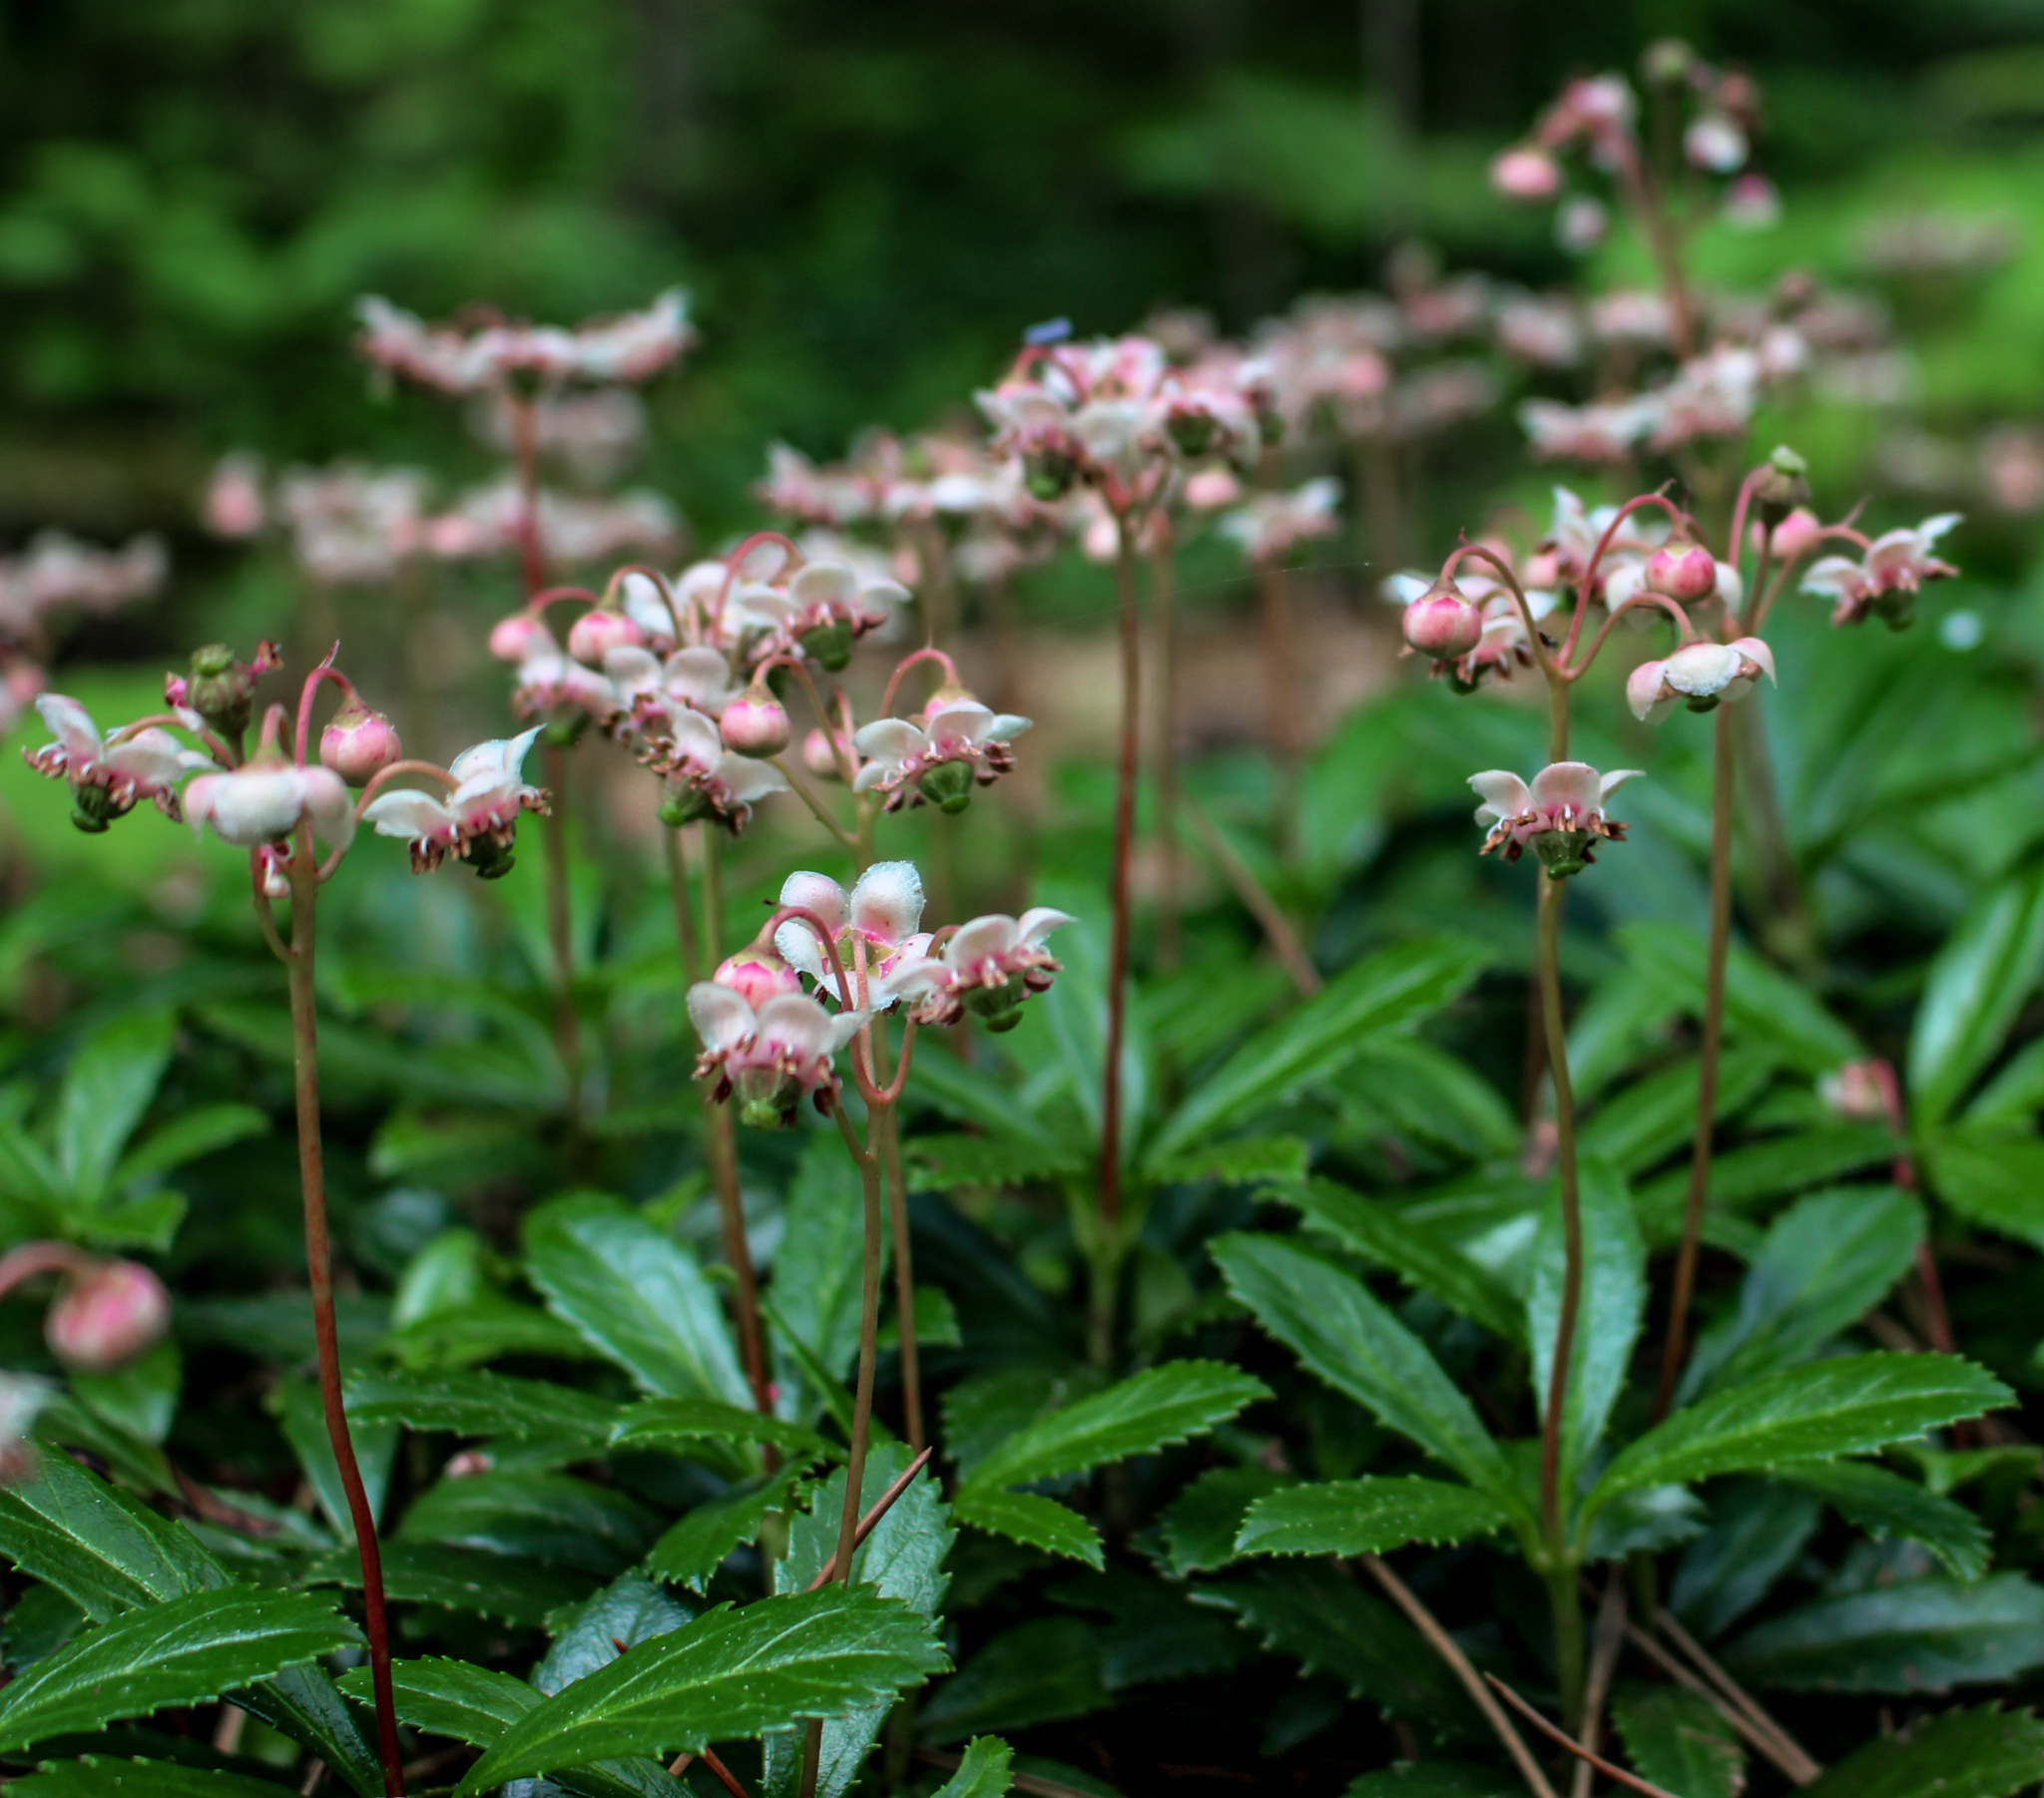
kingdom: Plantae
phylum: Tracheophyta
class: Magnoliopsida
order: Ericales
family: Ericaceae
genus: Chimaphila
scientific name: Chimaphila umbellata
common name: Pipsissewa
